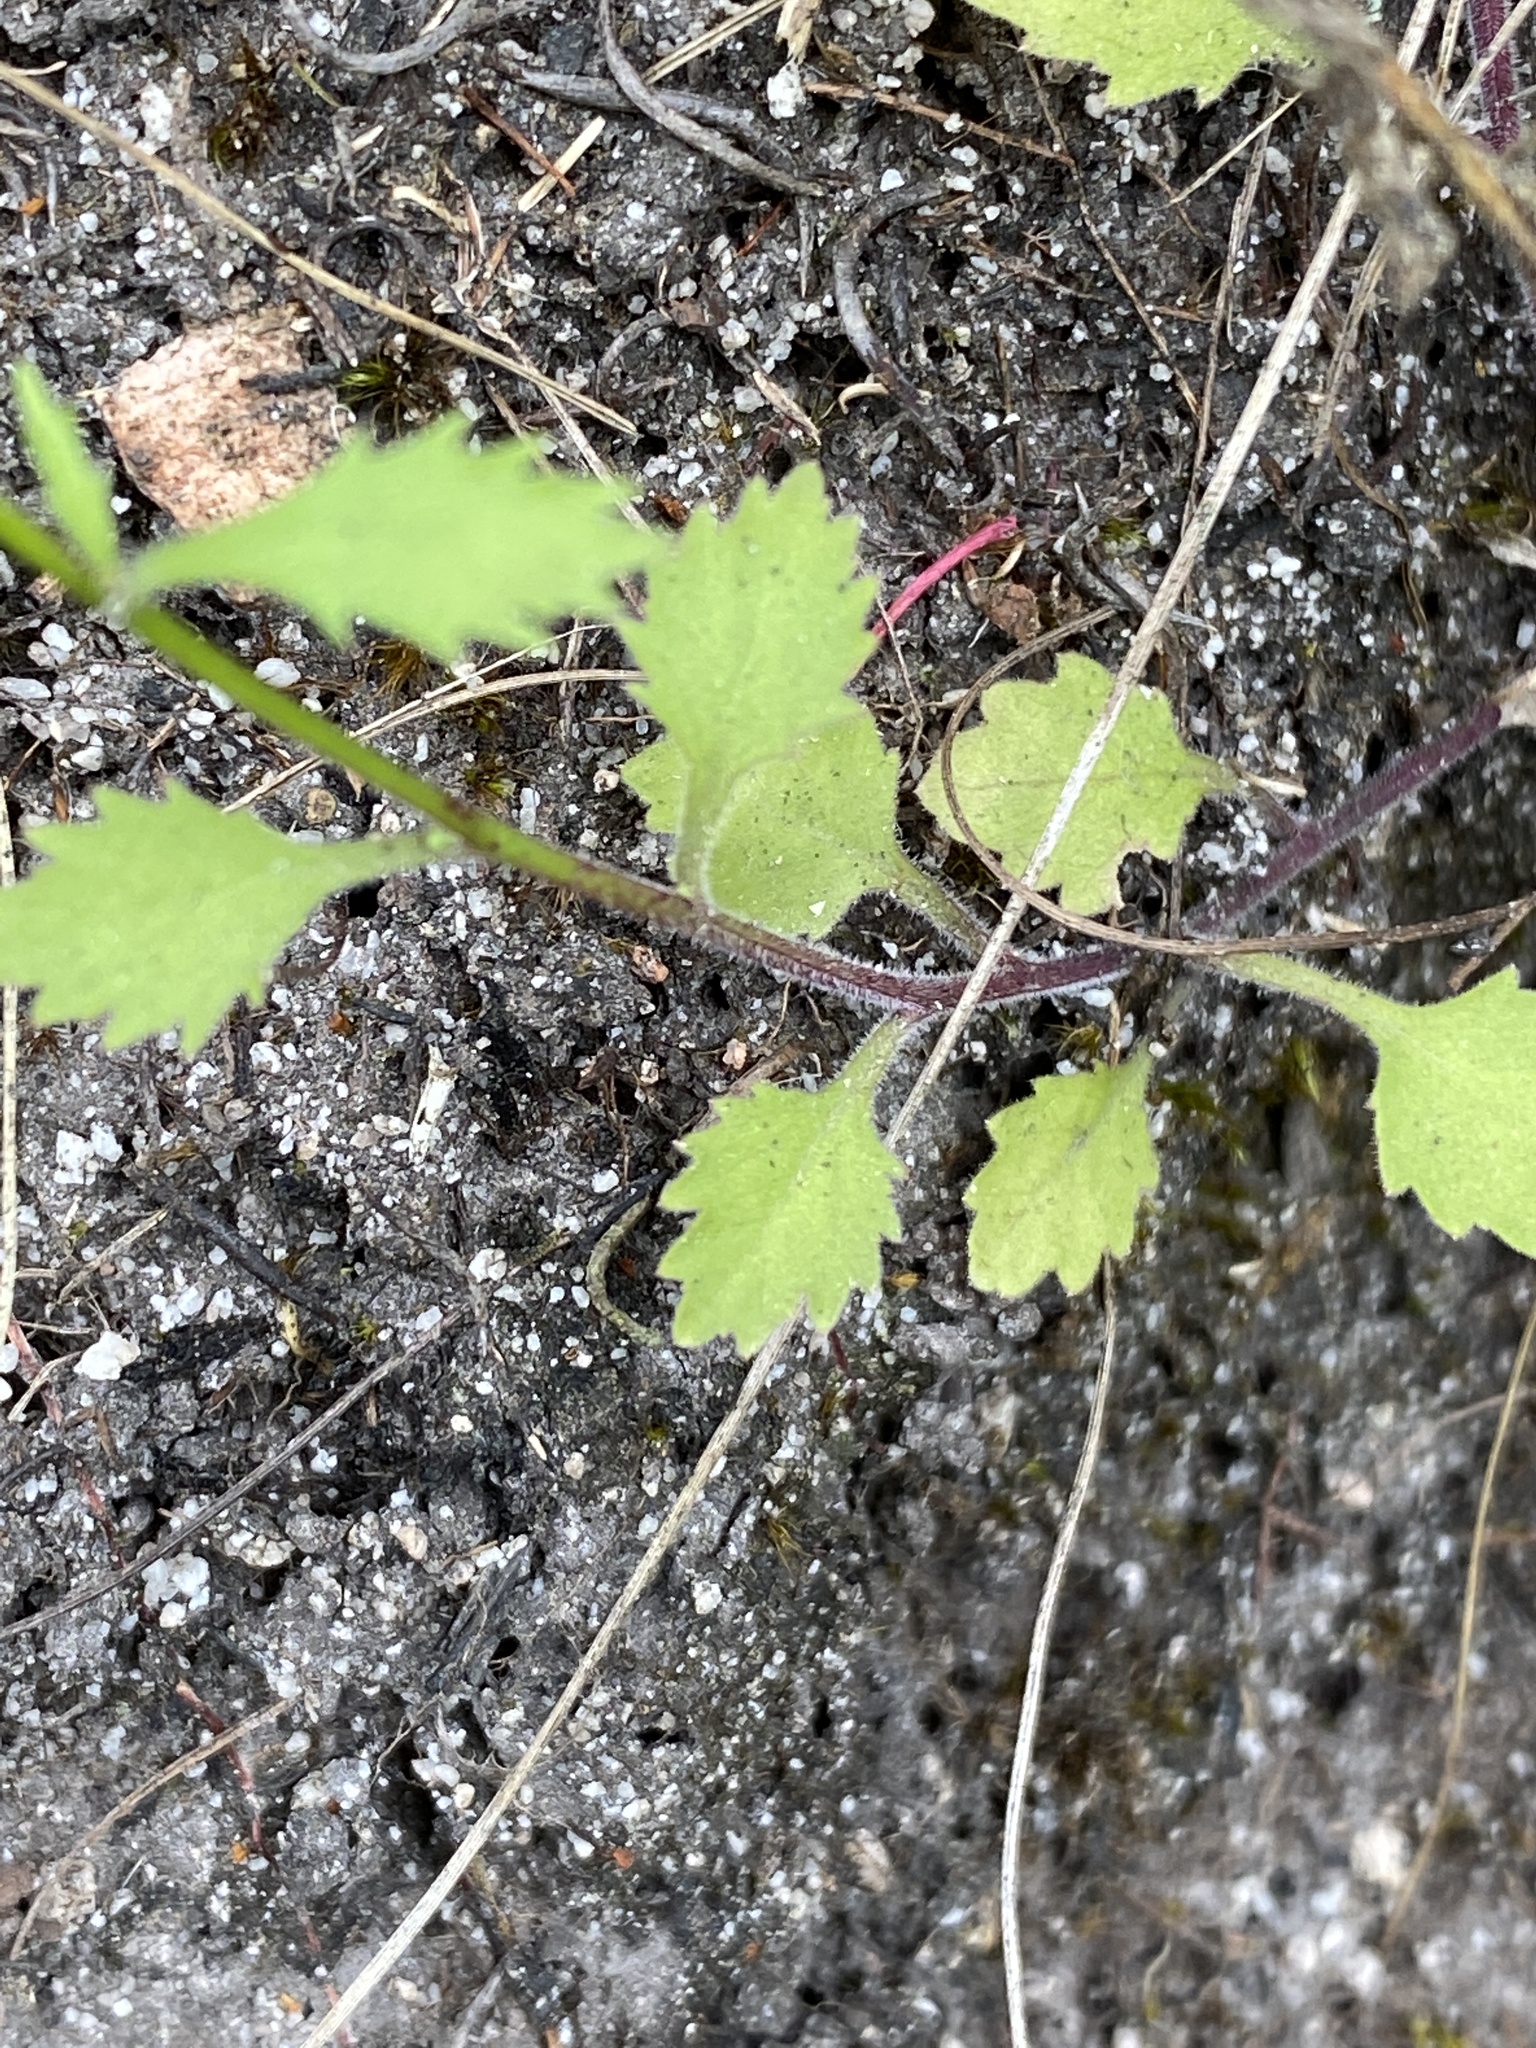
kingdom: Plantae
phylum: Tracheophyta
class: Magnoliopsida
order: Asterales
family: Campanulaceae
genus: Lobelia
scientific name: Lobelia hypsibata
